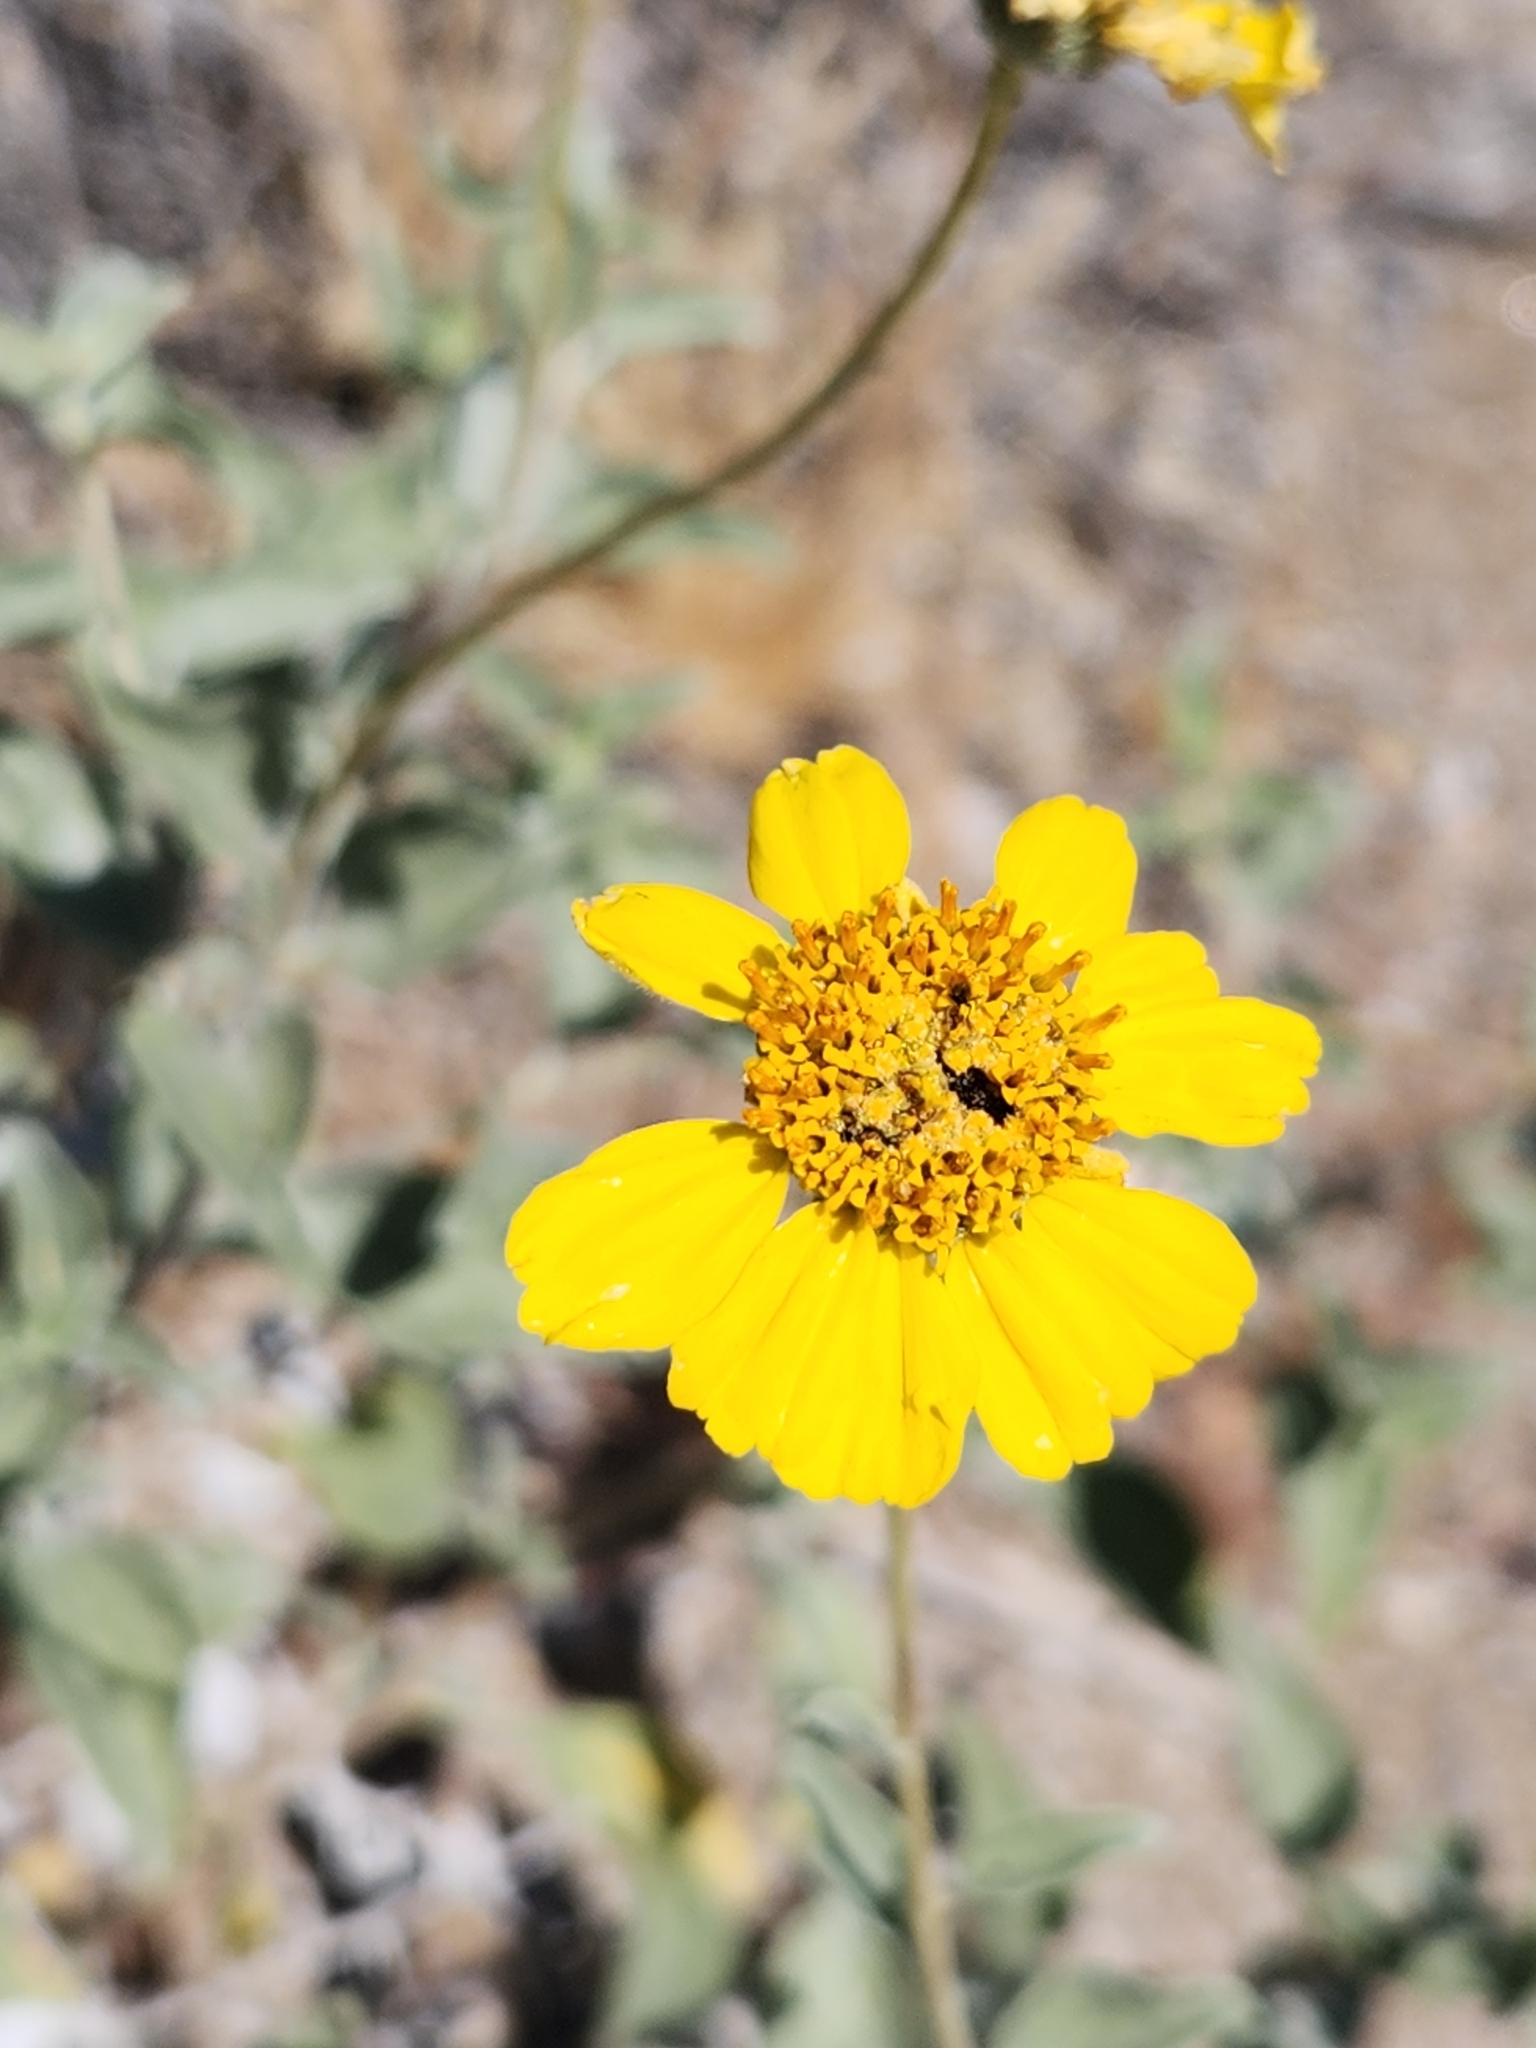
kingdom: Plantae
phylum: Tracheophyta
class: Magnoliopsida
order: Asterales
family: Asteraceae
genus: Encelia
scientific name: Encelia actoni
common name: Acton encelia
